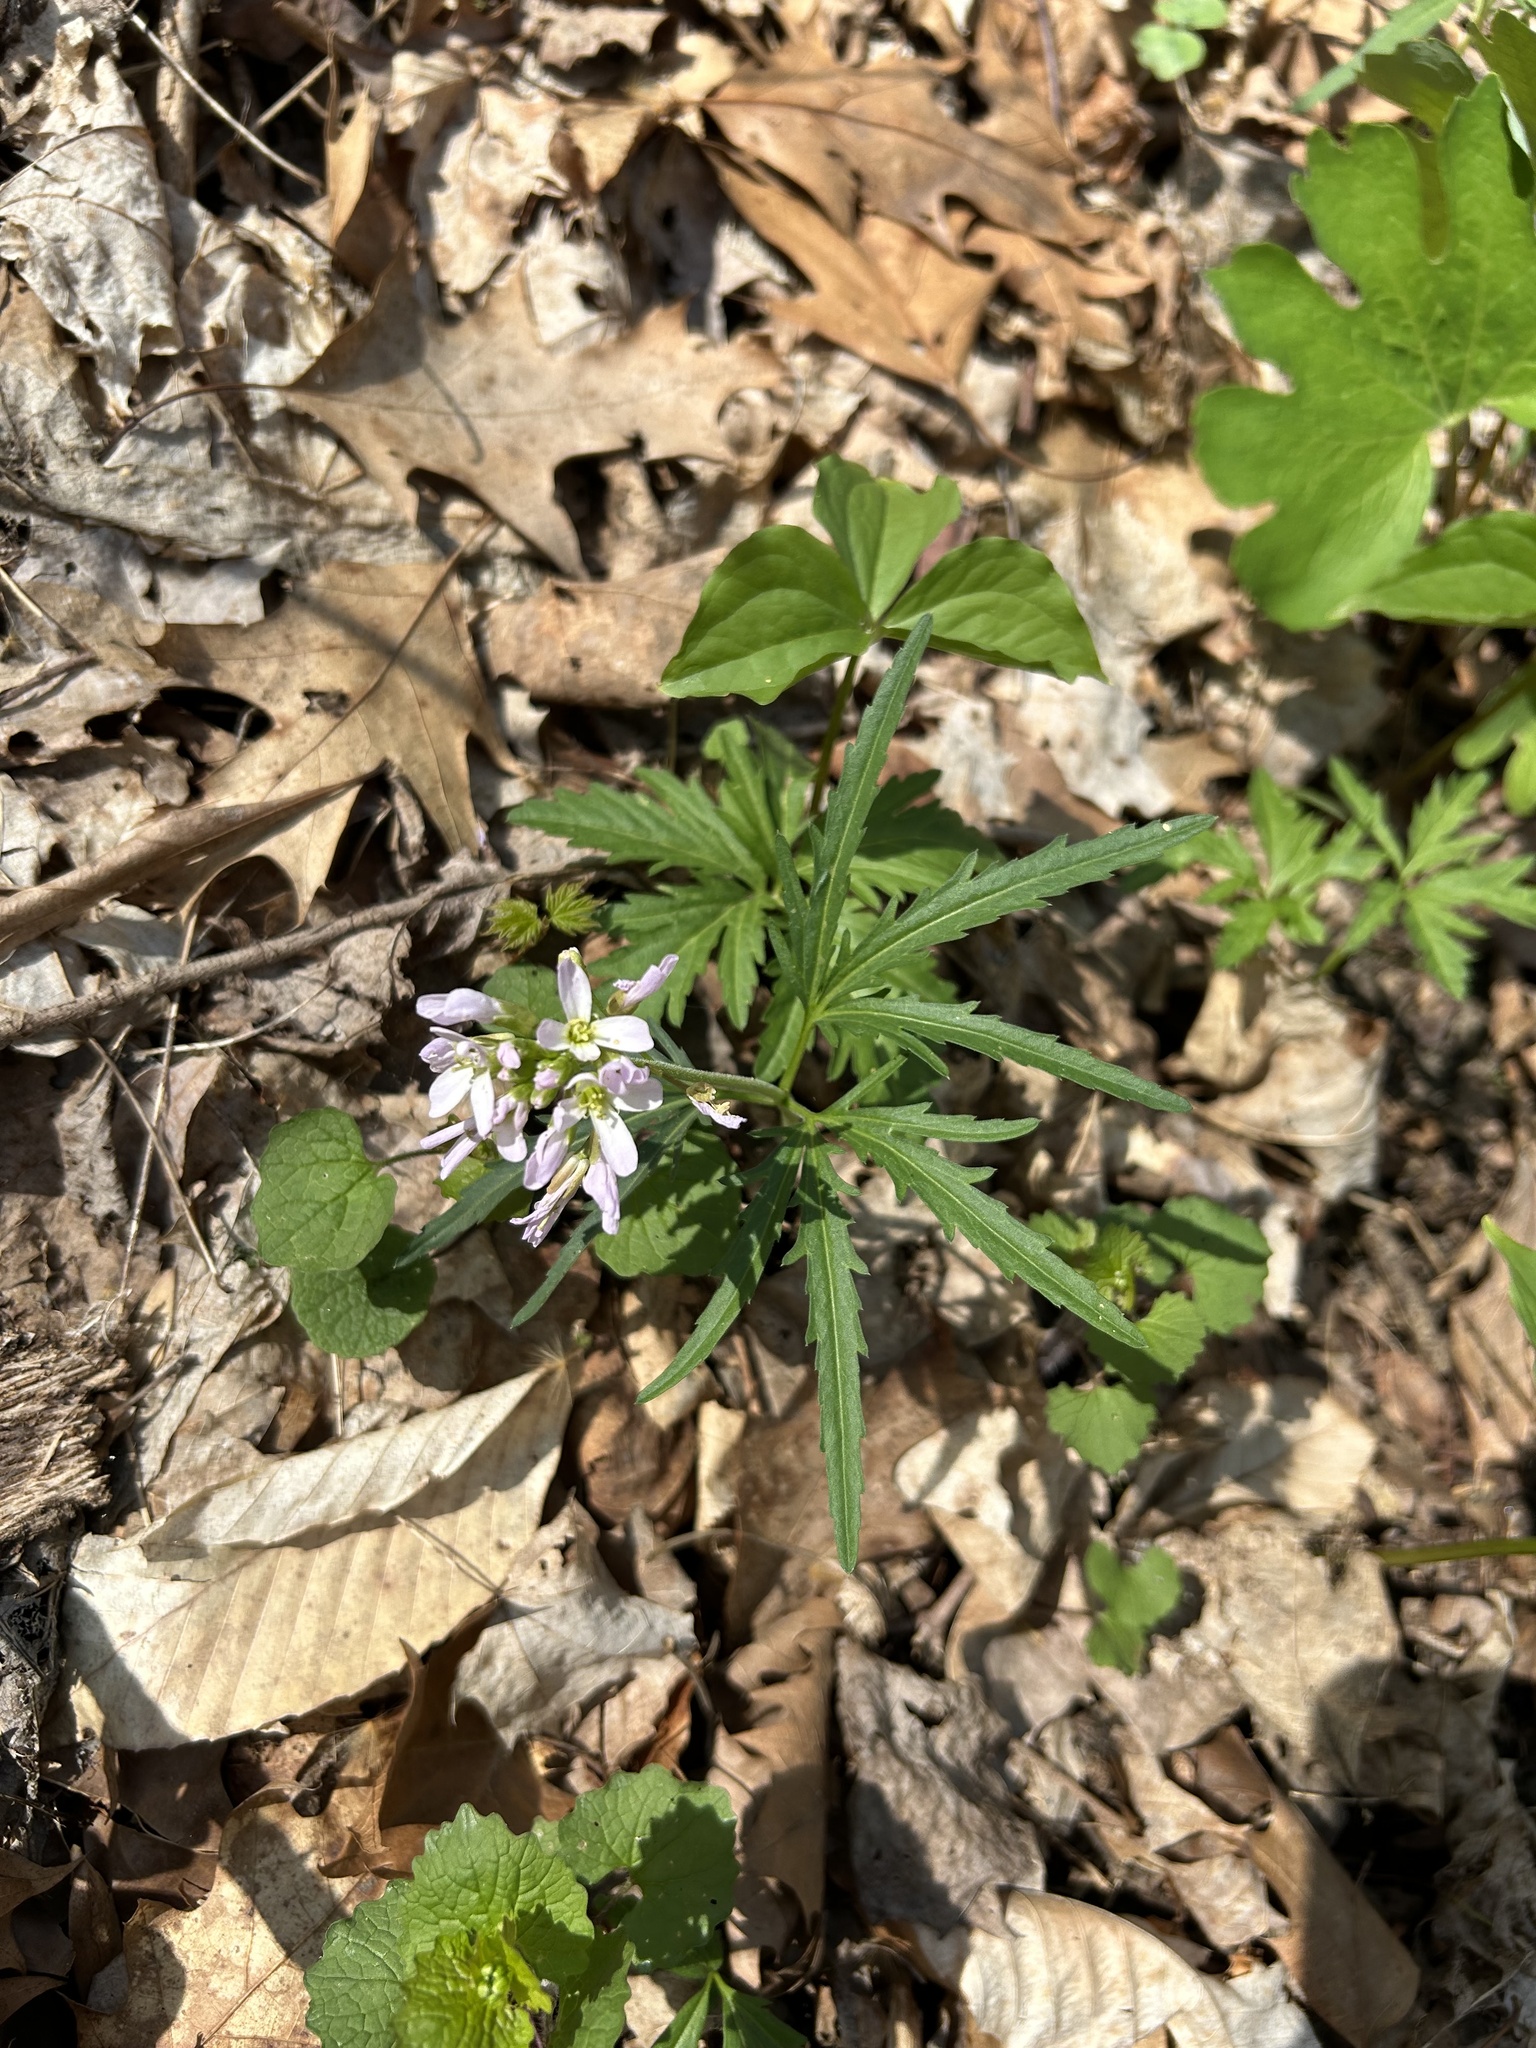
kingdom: Plantae
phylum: Tracheophyta
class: Magnoliopsida
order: Brassicales
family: Brassicaceae
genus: Cardamine
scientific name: Cardamine concatenata
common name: Cut-leaf toothcup
